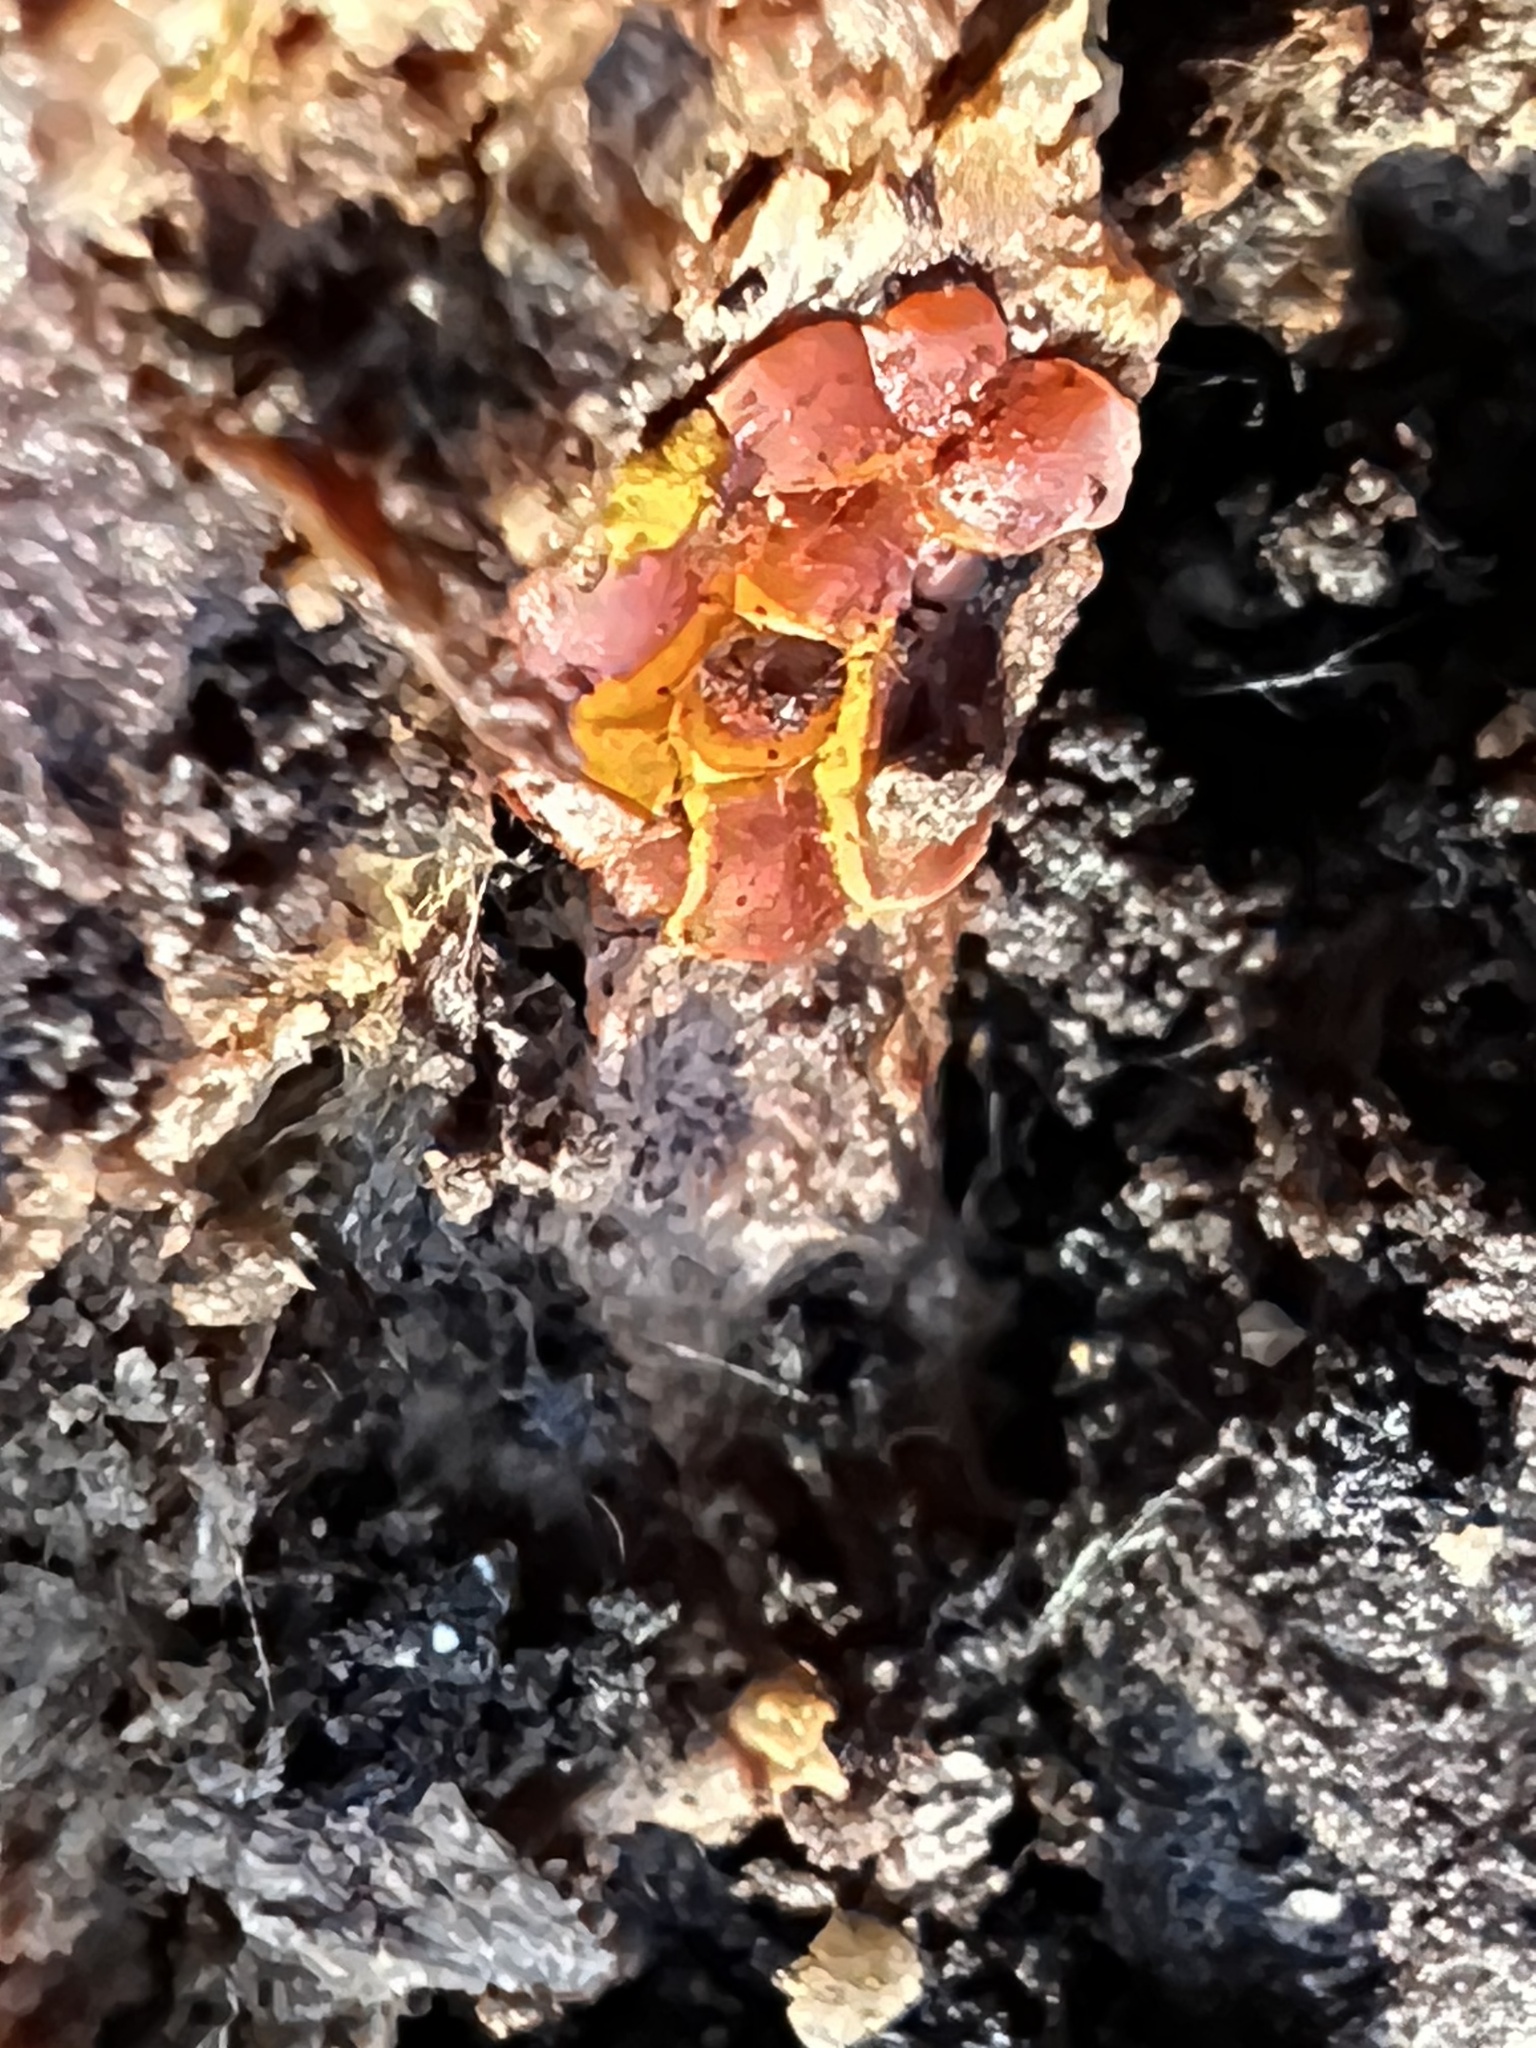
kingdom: Protozoa
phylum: Mycetozoa
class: Myxomycetes
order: Trichiales
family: Trichiaceae
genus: Perichaena
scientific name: Perichaena depressa
